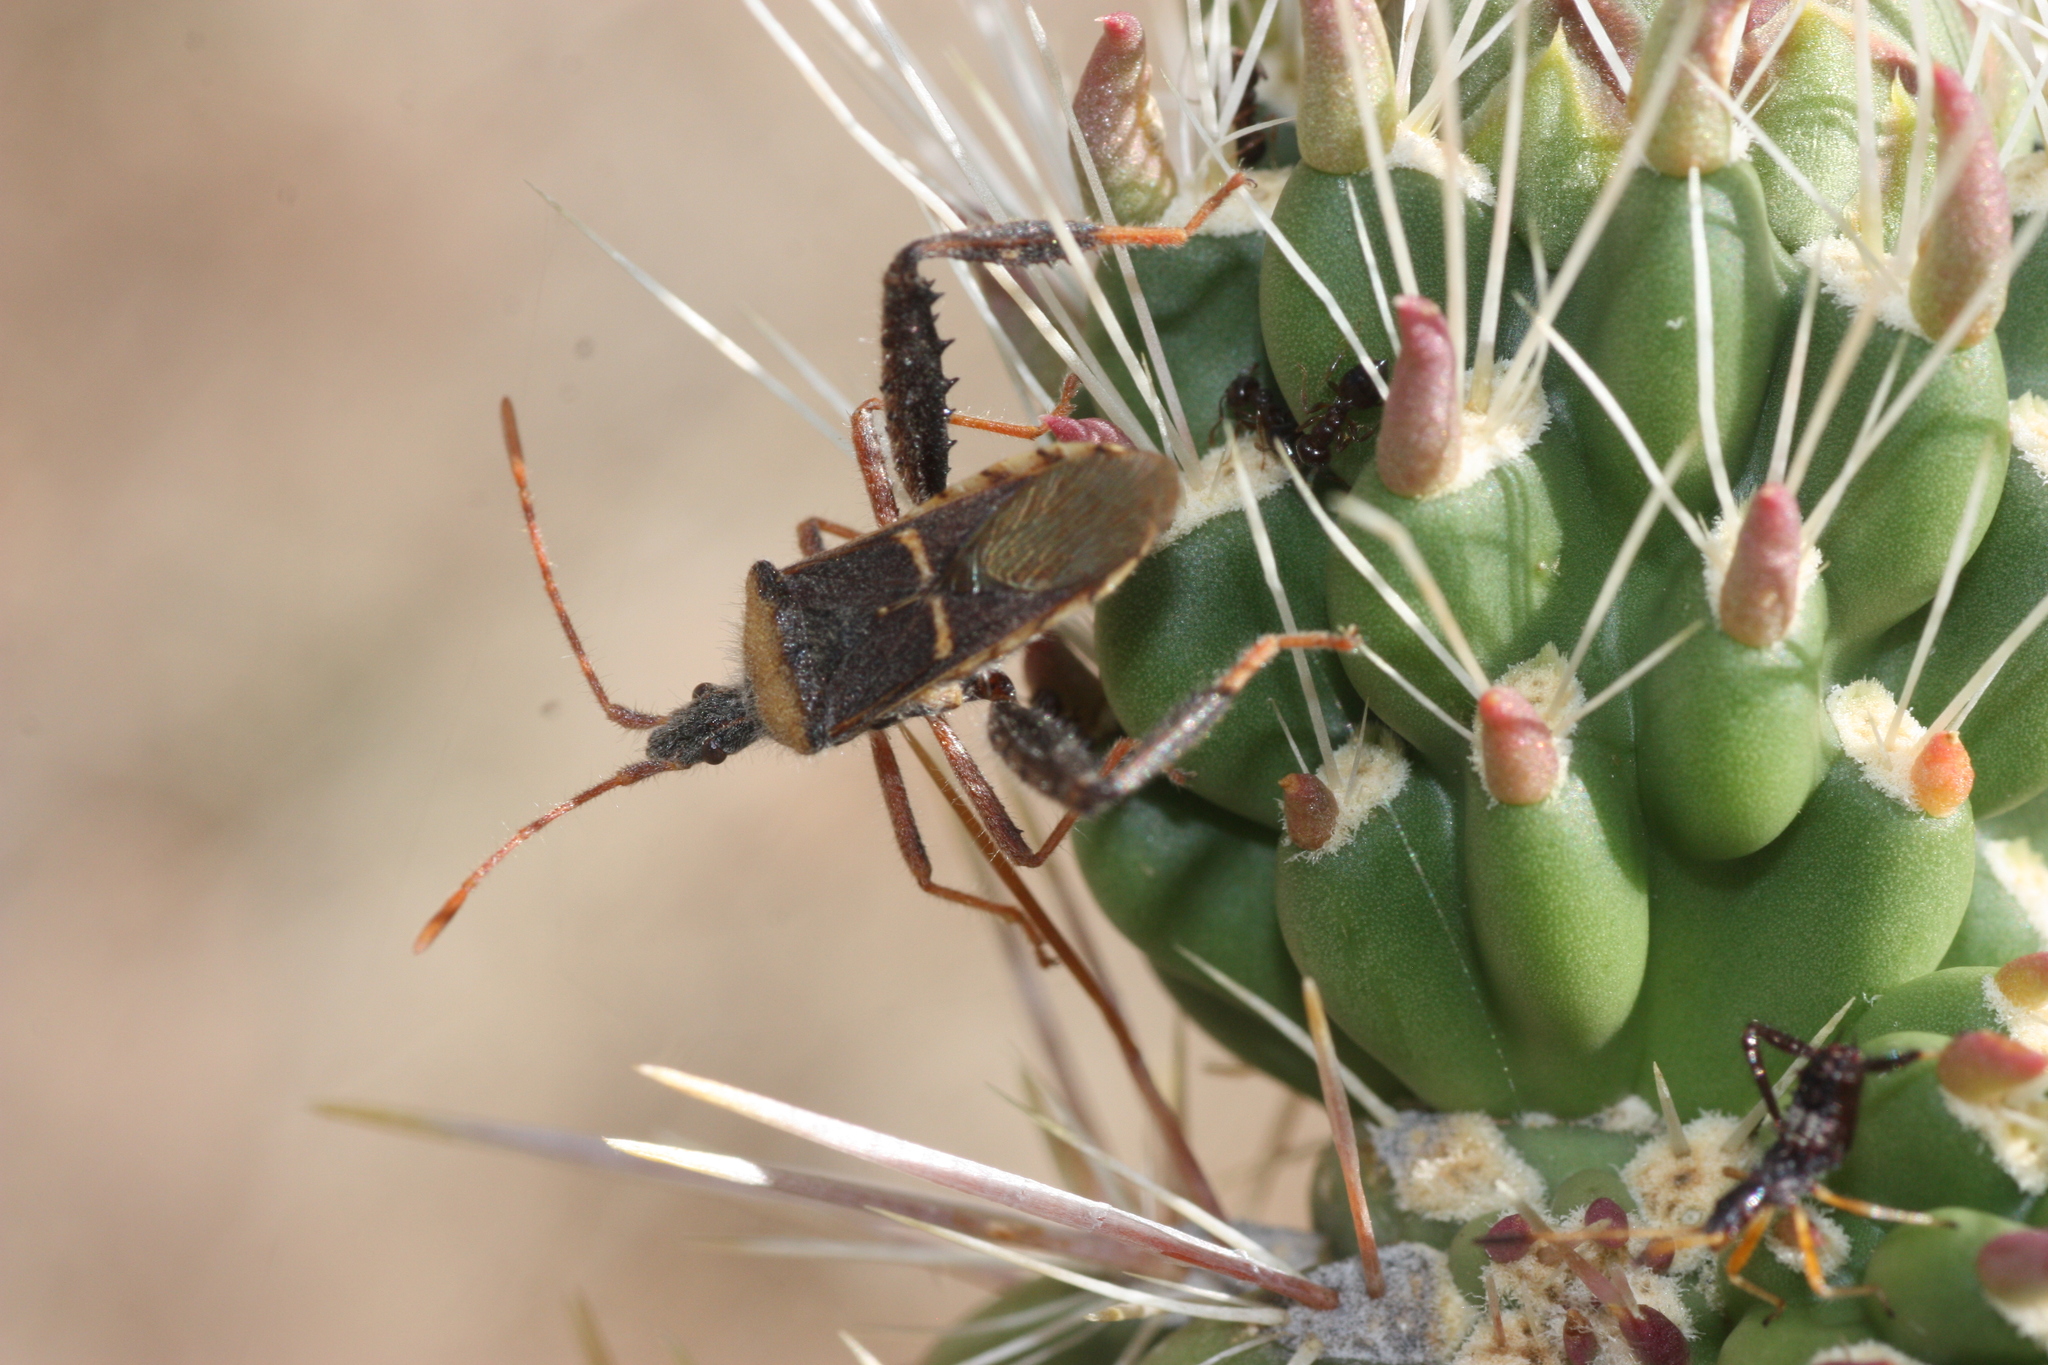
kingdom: Animalia
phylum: Arthropoda
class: Insecta
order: Hemiptera
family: Coreidae
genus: Narnia
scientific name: Narnia snowi
